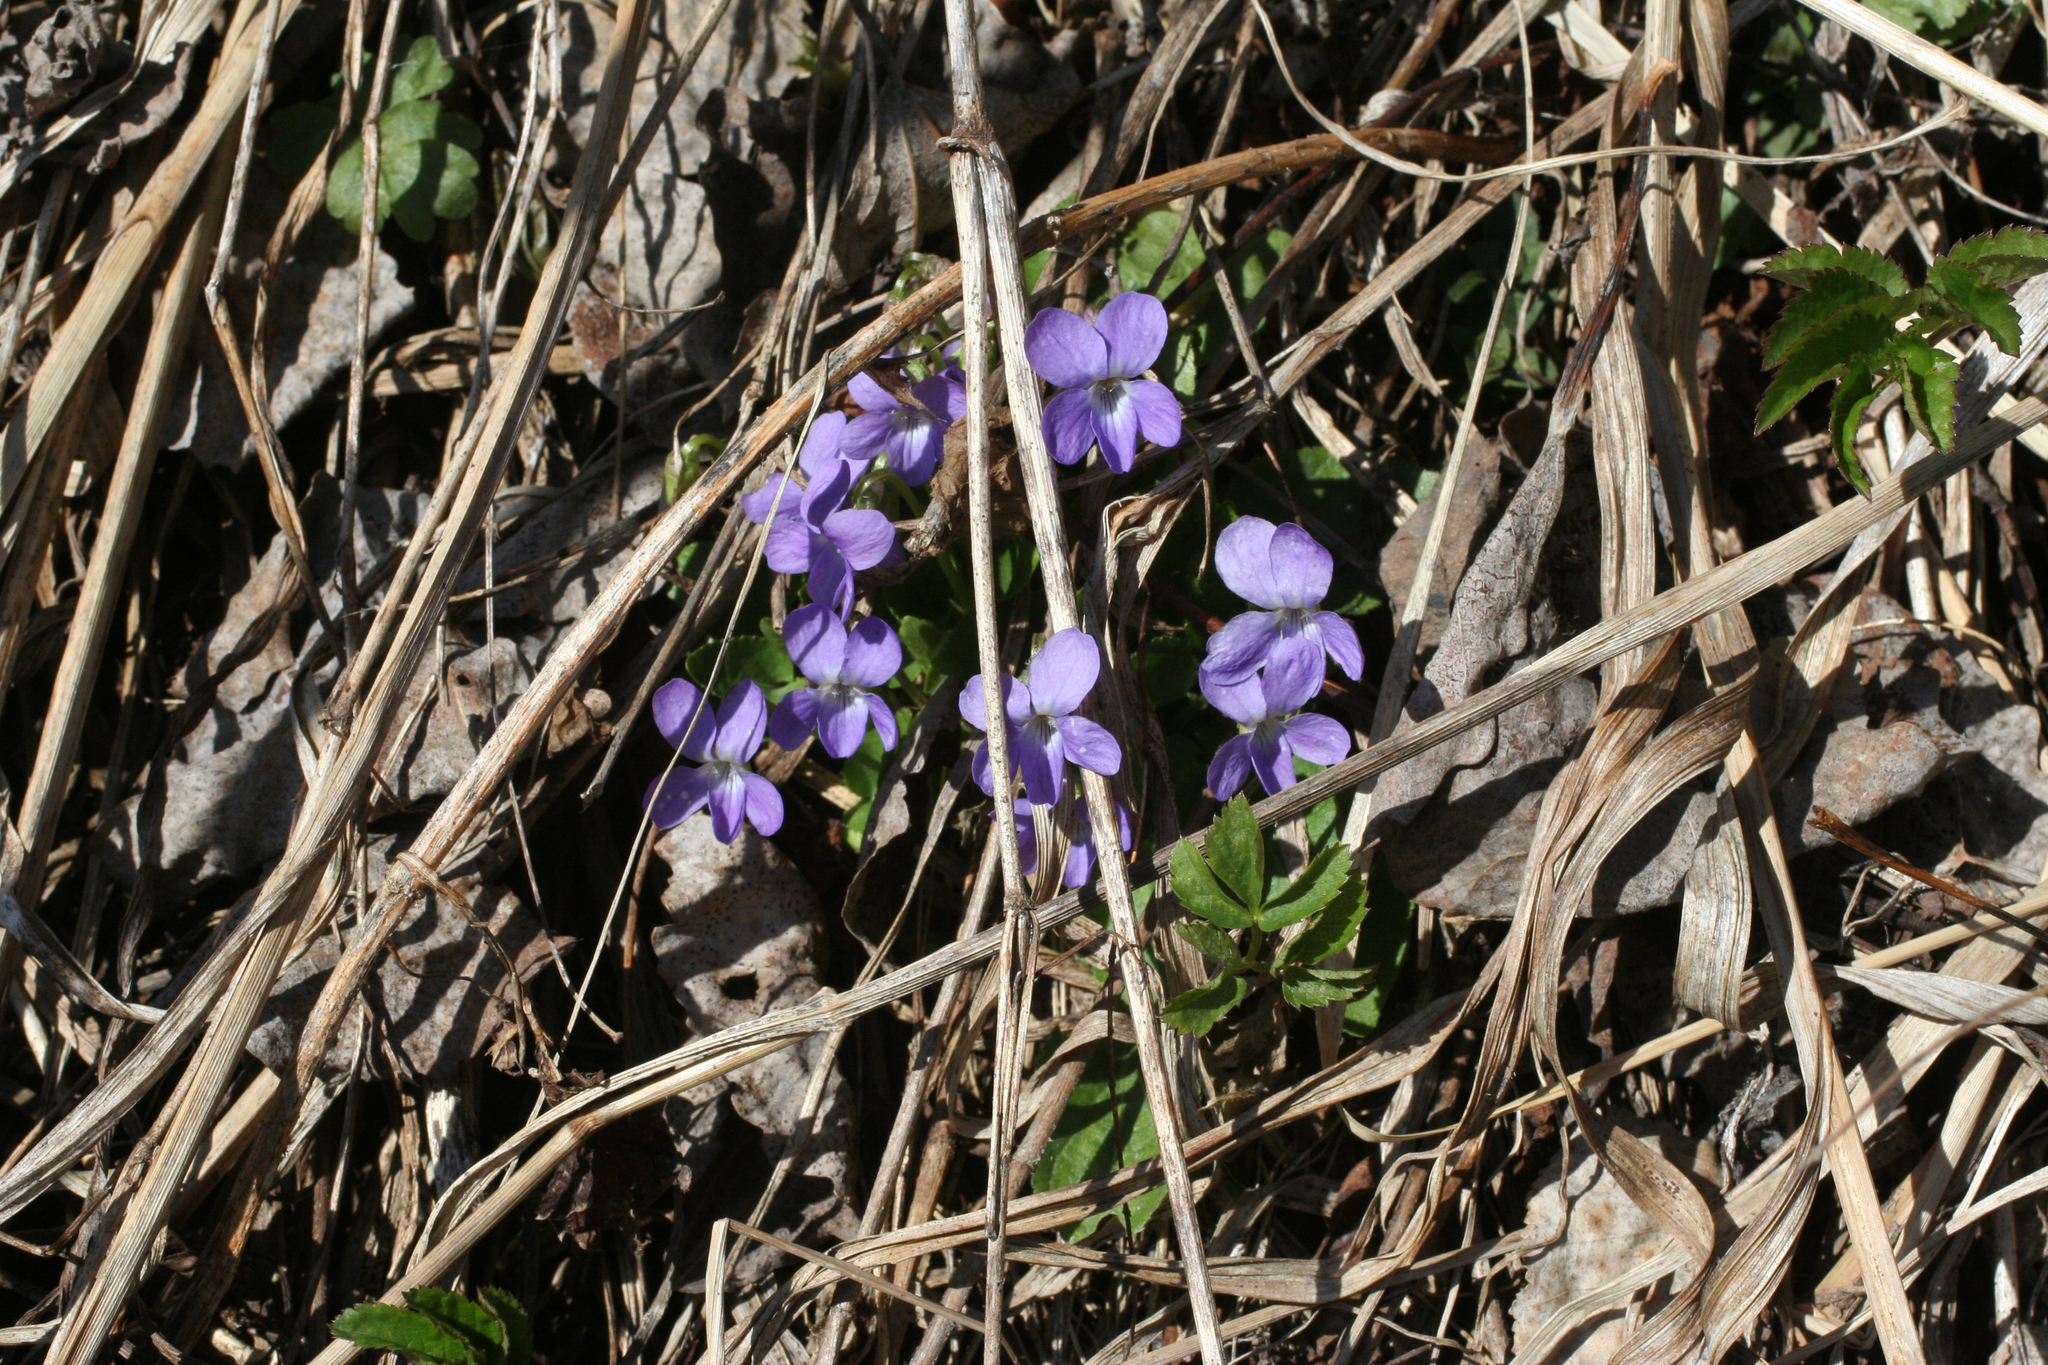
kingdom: Plantae
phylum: Tracheophyta
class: Magnoliopsida
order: Malpighiales
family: Violaceae
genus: Viola
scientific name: Viola hirta
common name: Hairy violet
